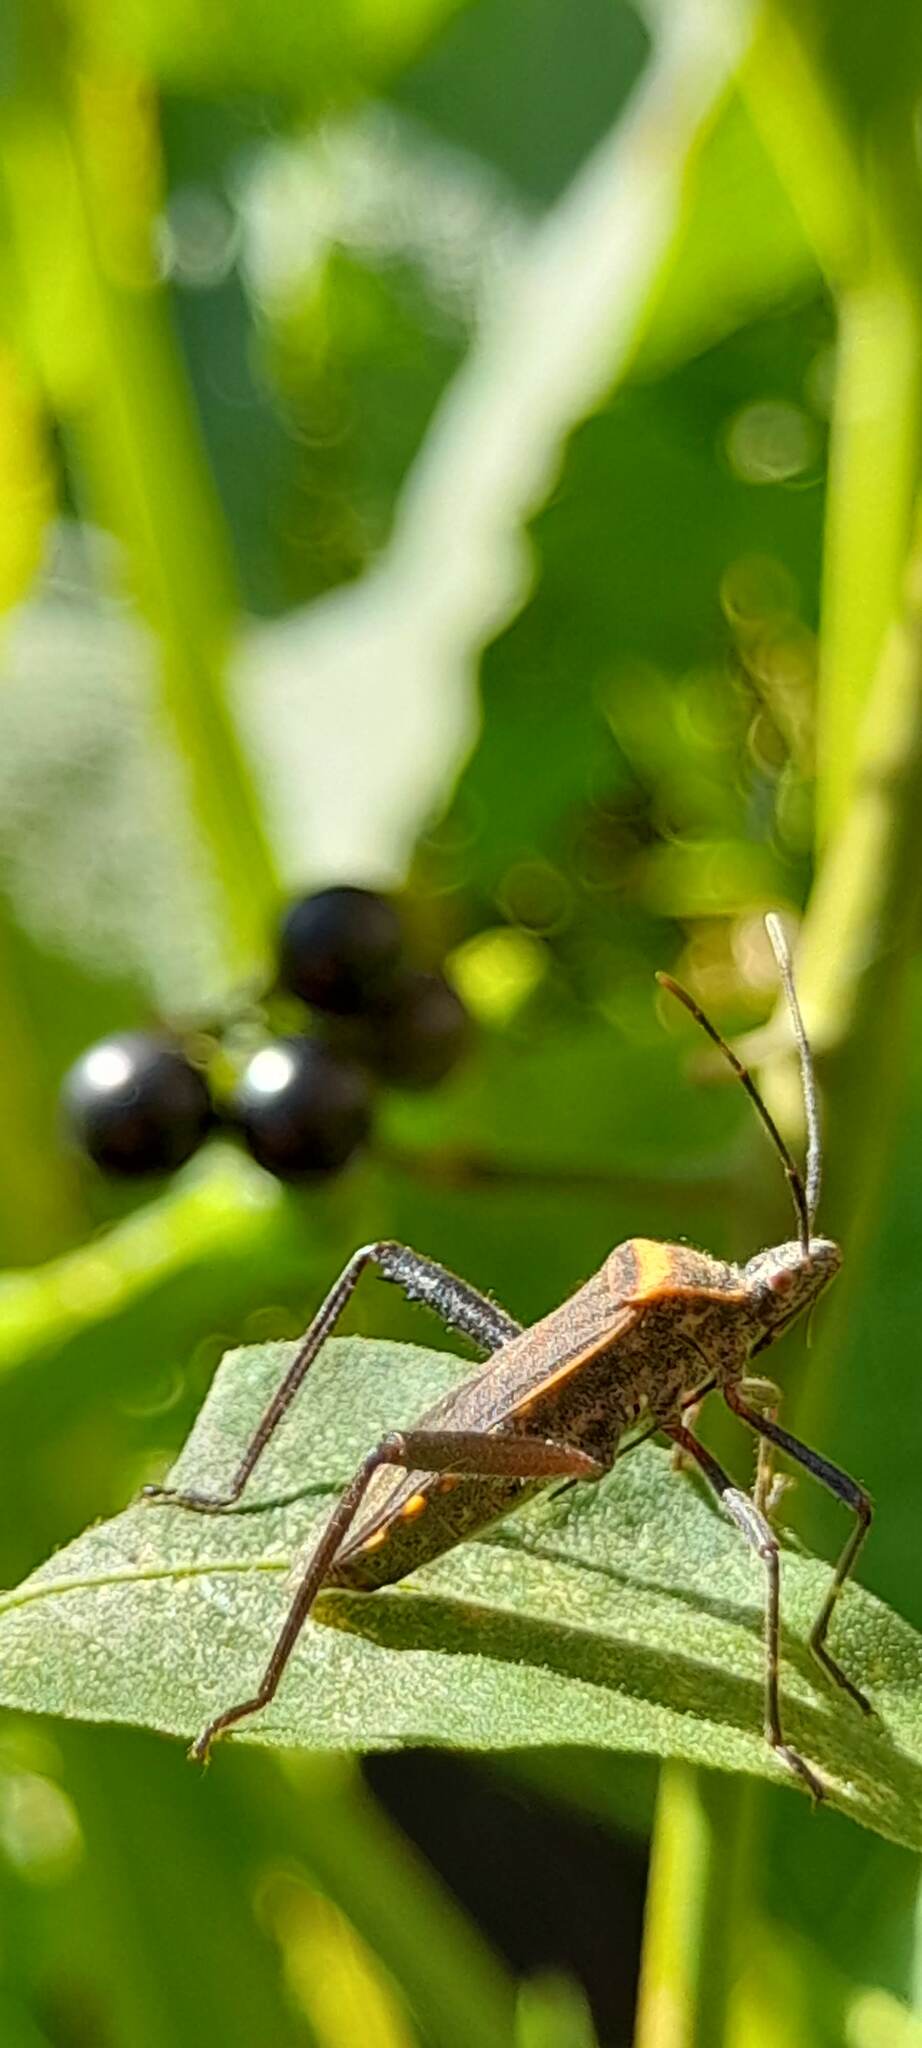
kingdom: Animalia
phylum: Arthropoda
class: Insecta
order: Hemiptera
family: Coreidae
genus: Phthiacnemia
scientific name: Phthiacnemia picta
